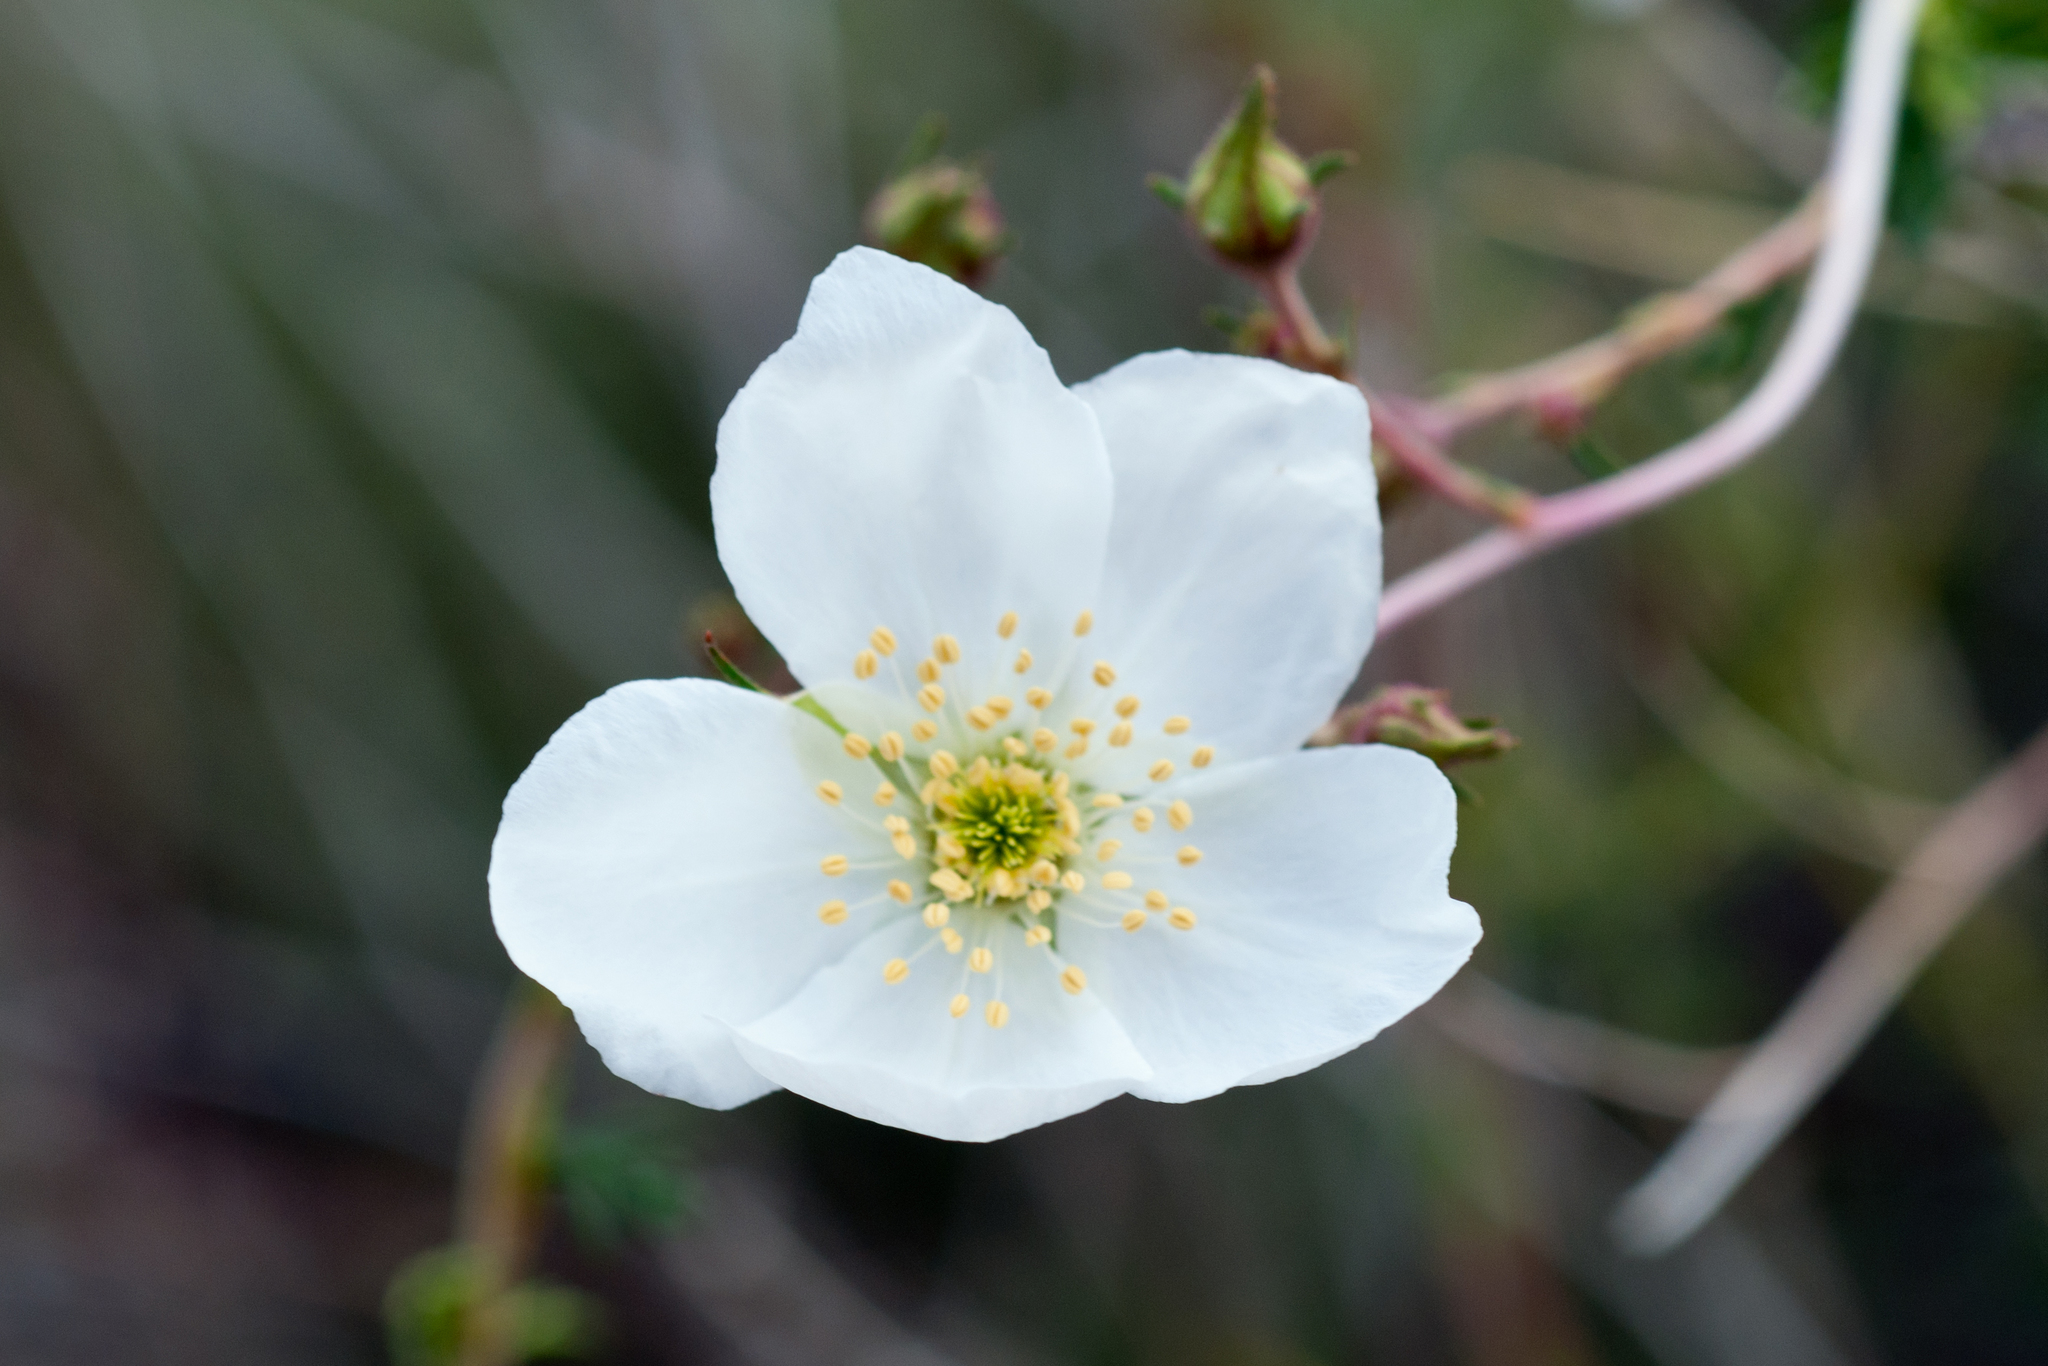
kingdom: Plantae
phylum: Tracheophyta
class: Magnoliopsida
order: Rosales
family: Rosaceae
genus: Fallugia
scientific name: Fallugia paradoxa
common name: Apache-plume
